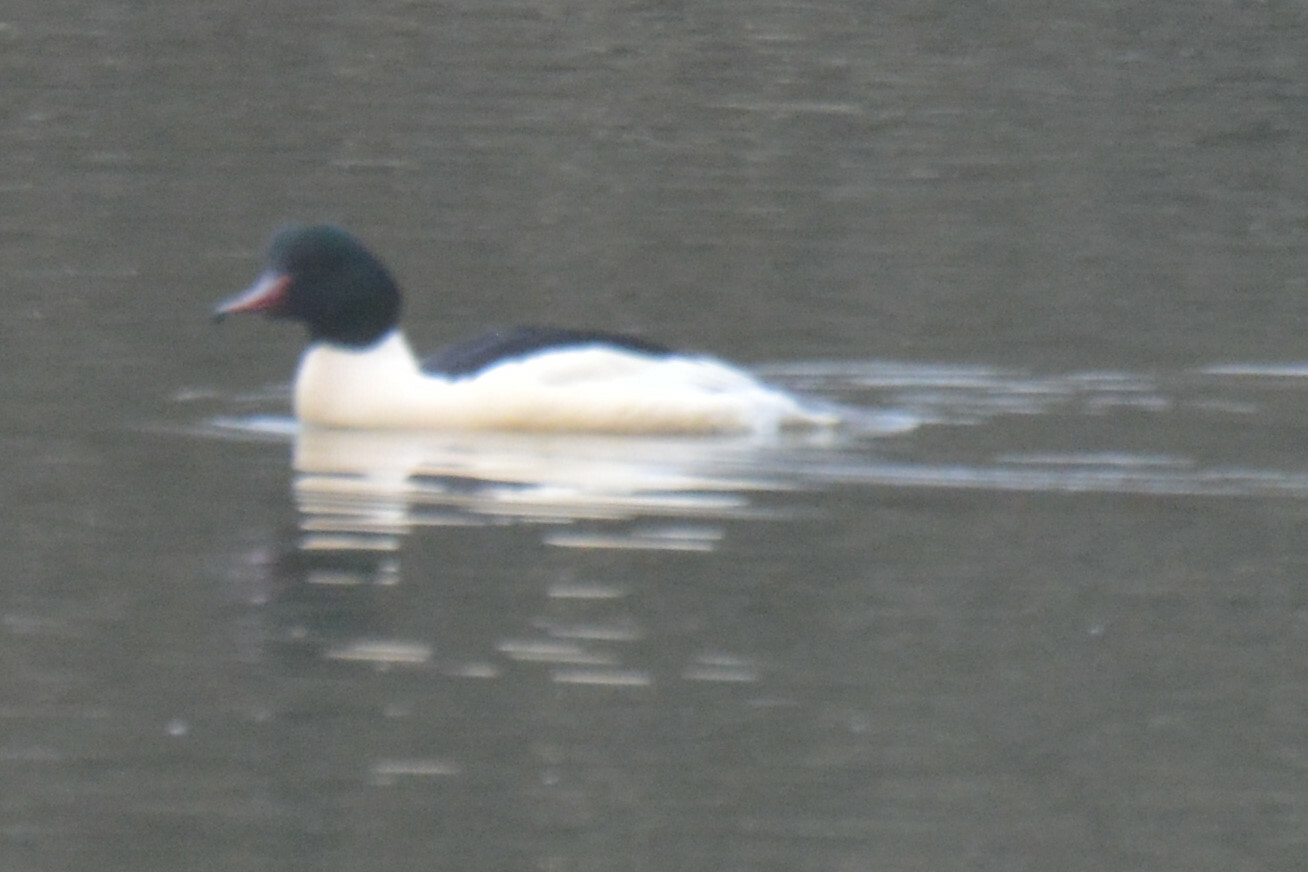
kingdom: Animalia
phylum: Chordata
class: Aves
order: Anseriformes
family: Anatidae
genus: Mergus
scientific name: Mergus merganser
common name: Common merganser
